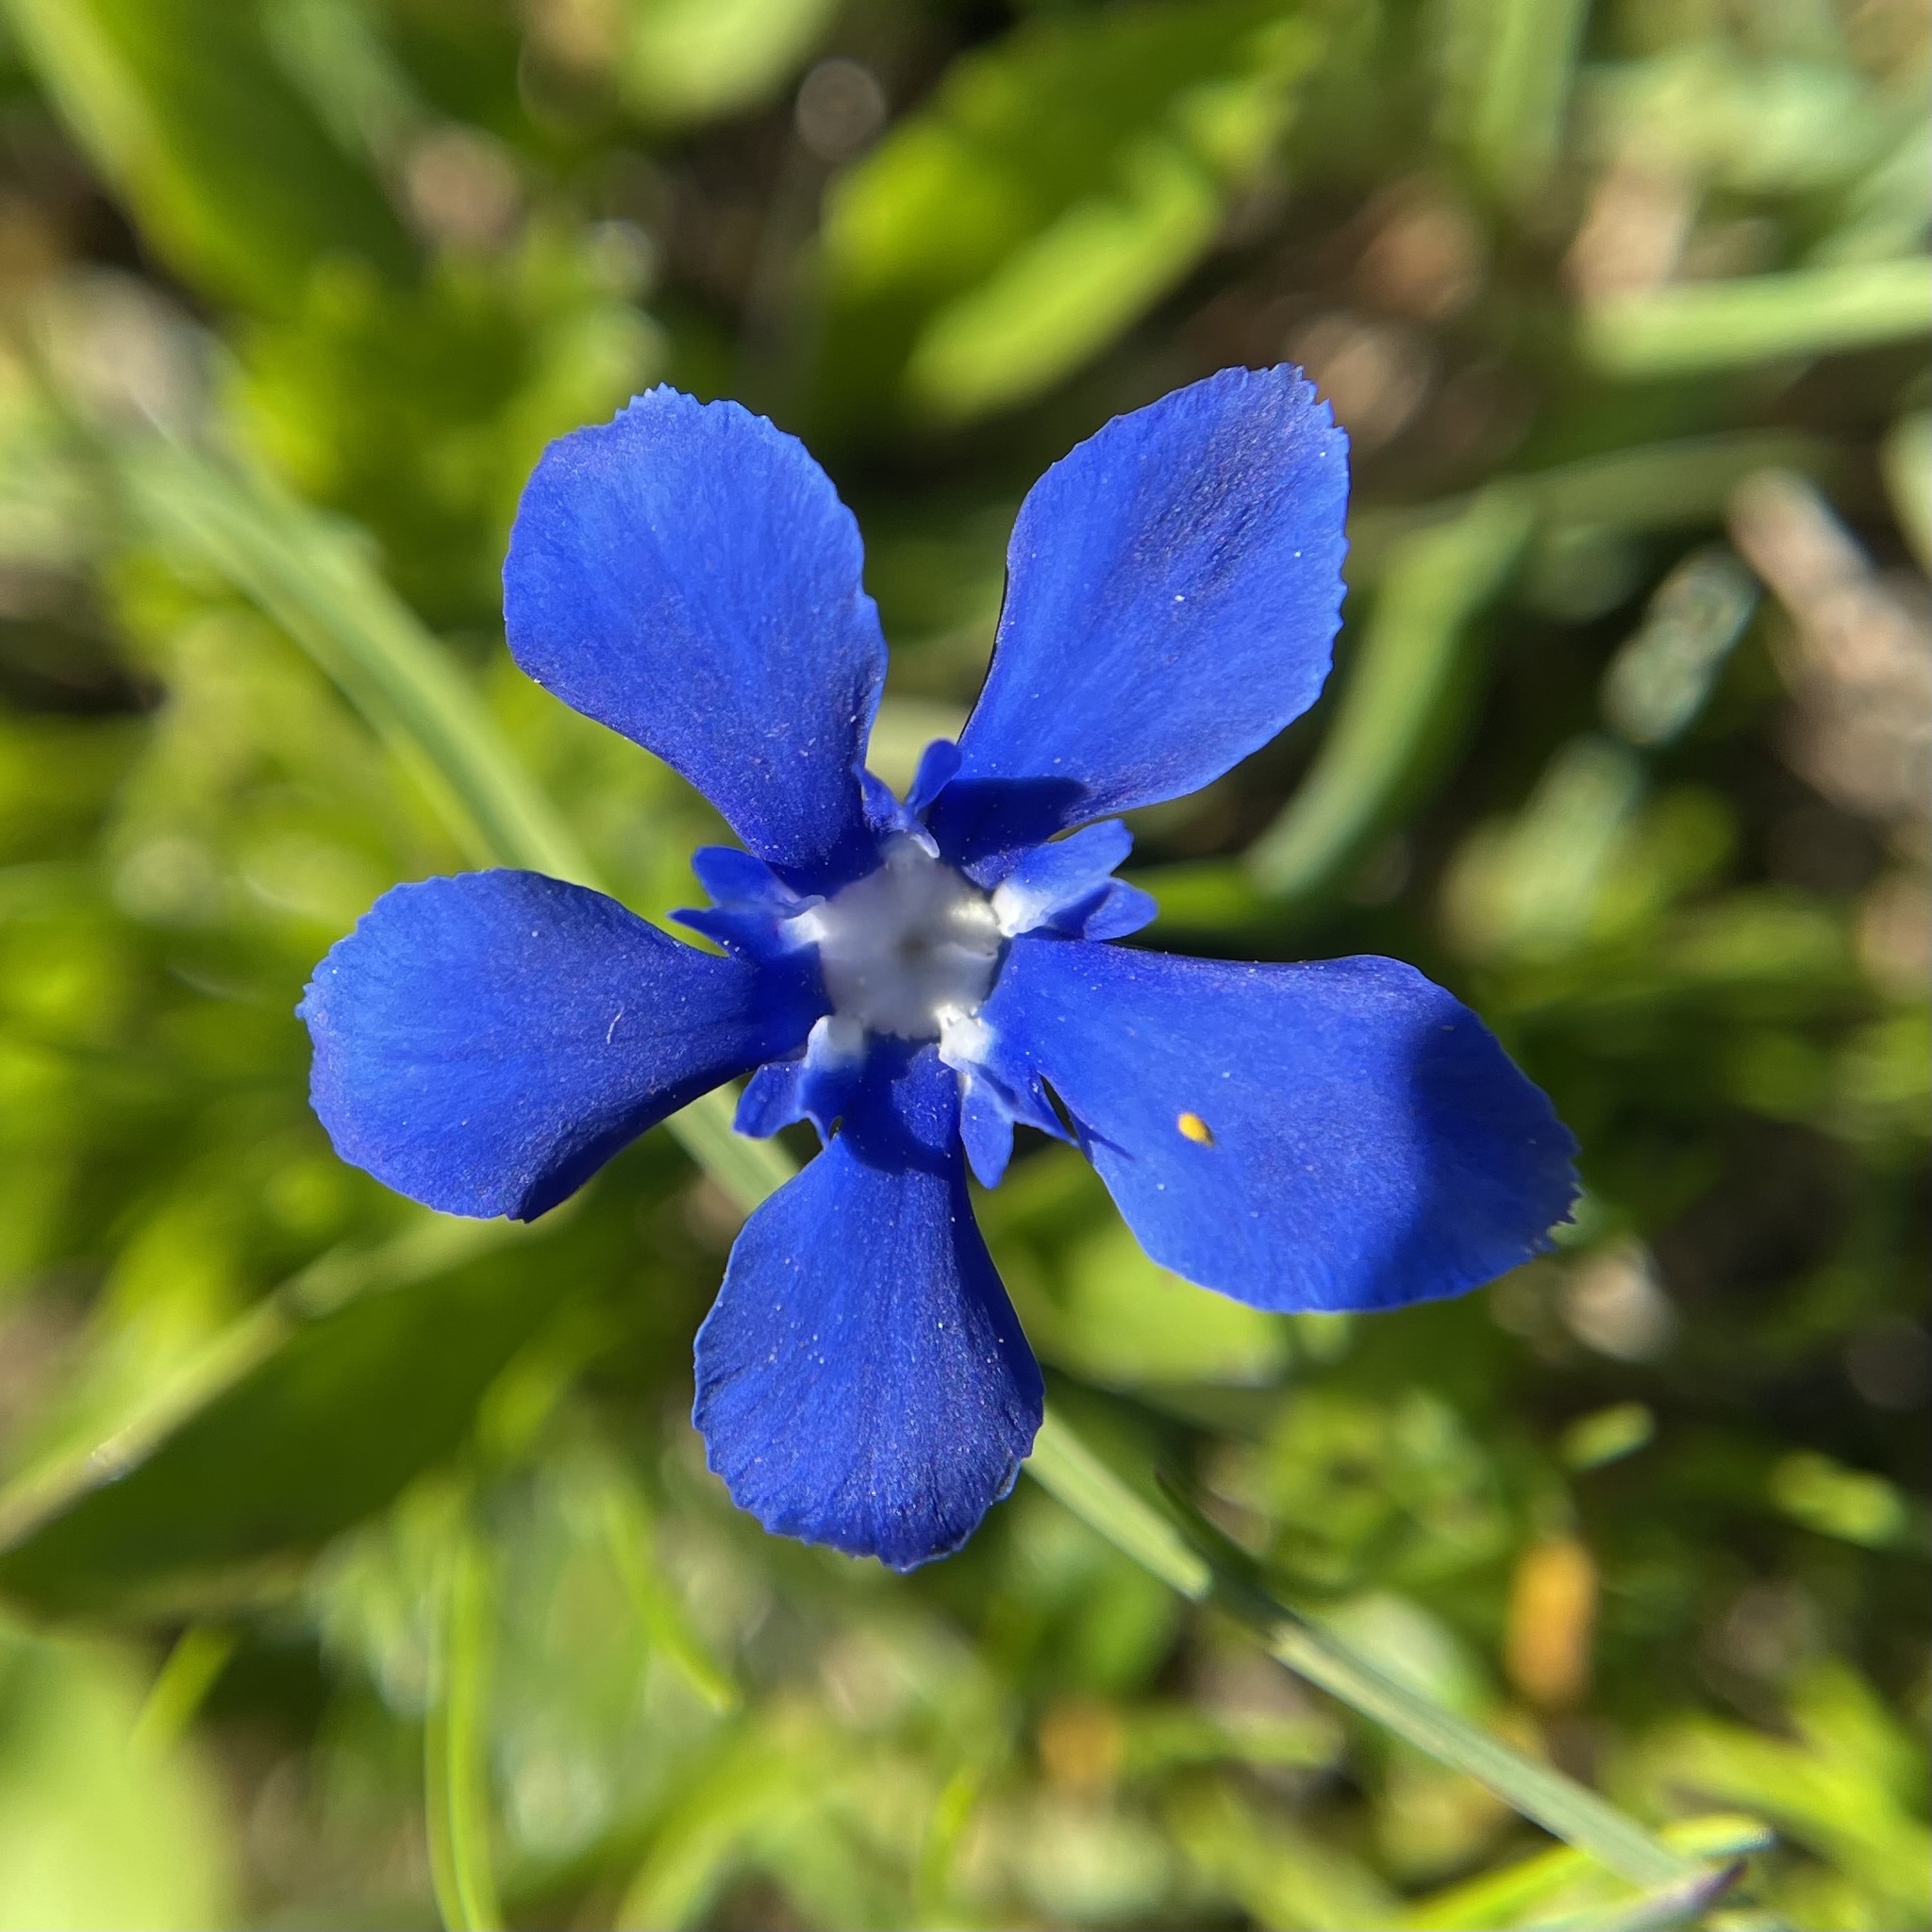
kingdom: Plantae
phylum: Tracheophyta
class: Magnoliopsida
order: Gentianales
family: Gentianaceae
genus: Gentiana
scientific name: Gentiana
